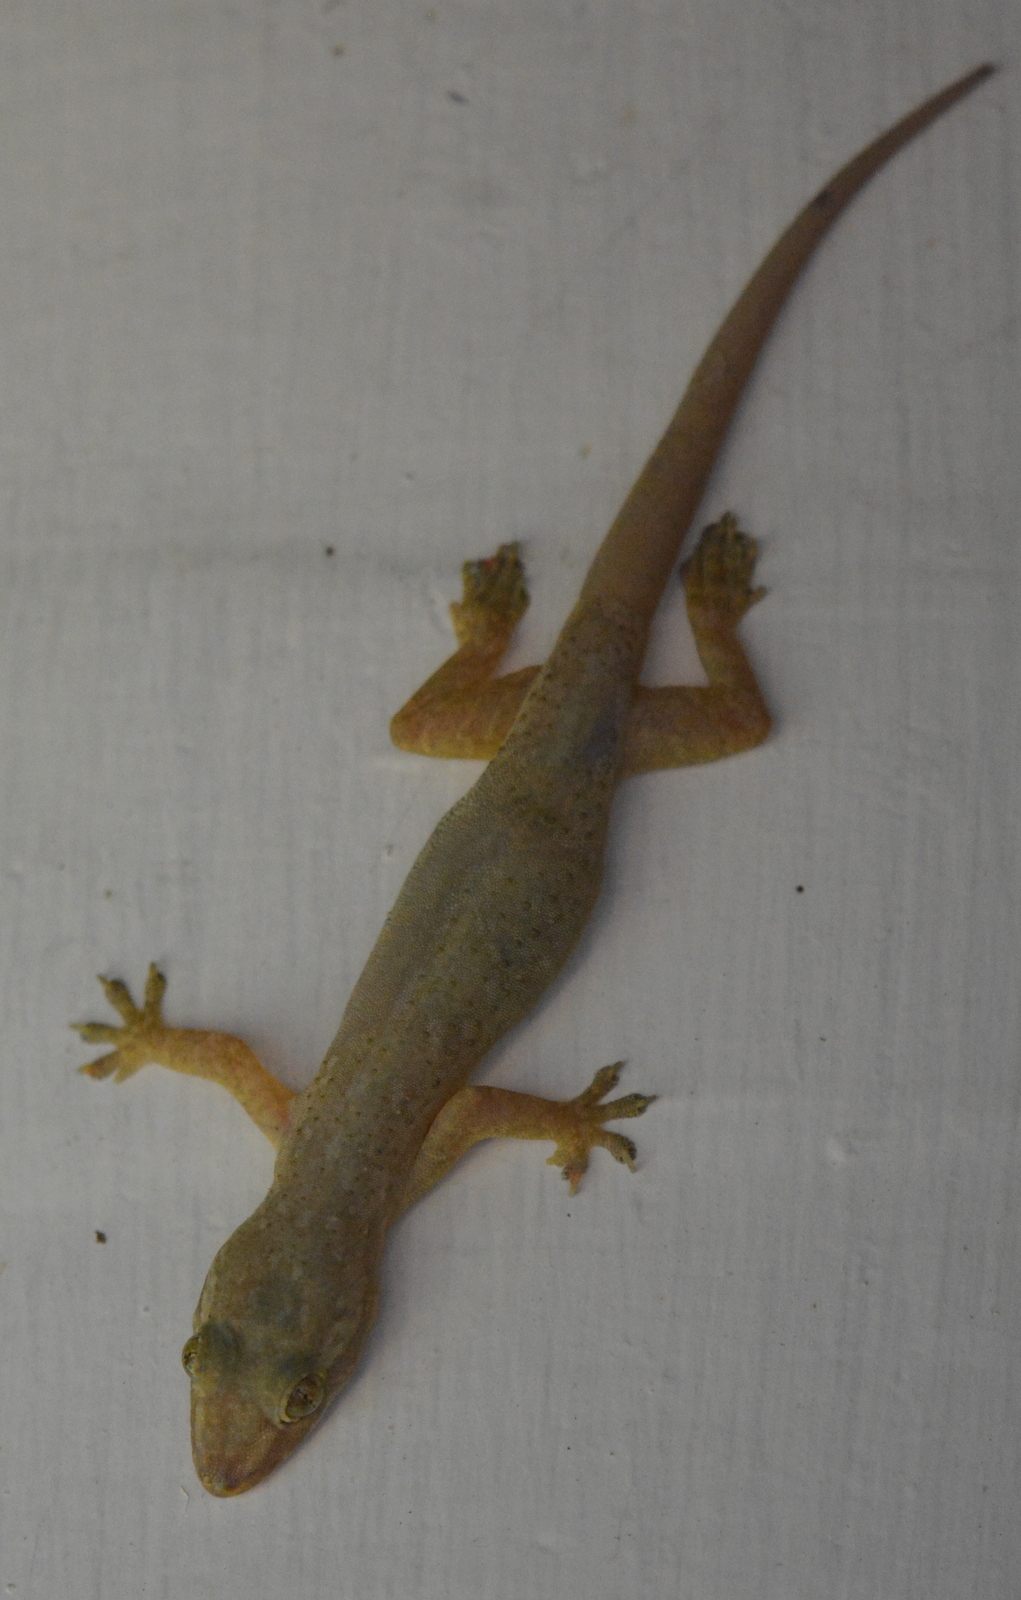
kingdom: Animalia
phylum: Chordata
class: Squamata
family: Gekkonidae
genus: Hemidactylus
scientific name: Hemidactylus frenatus
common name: Common house gecko
